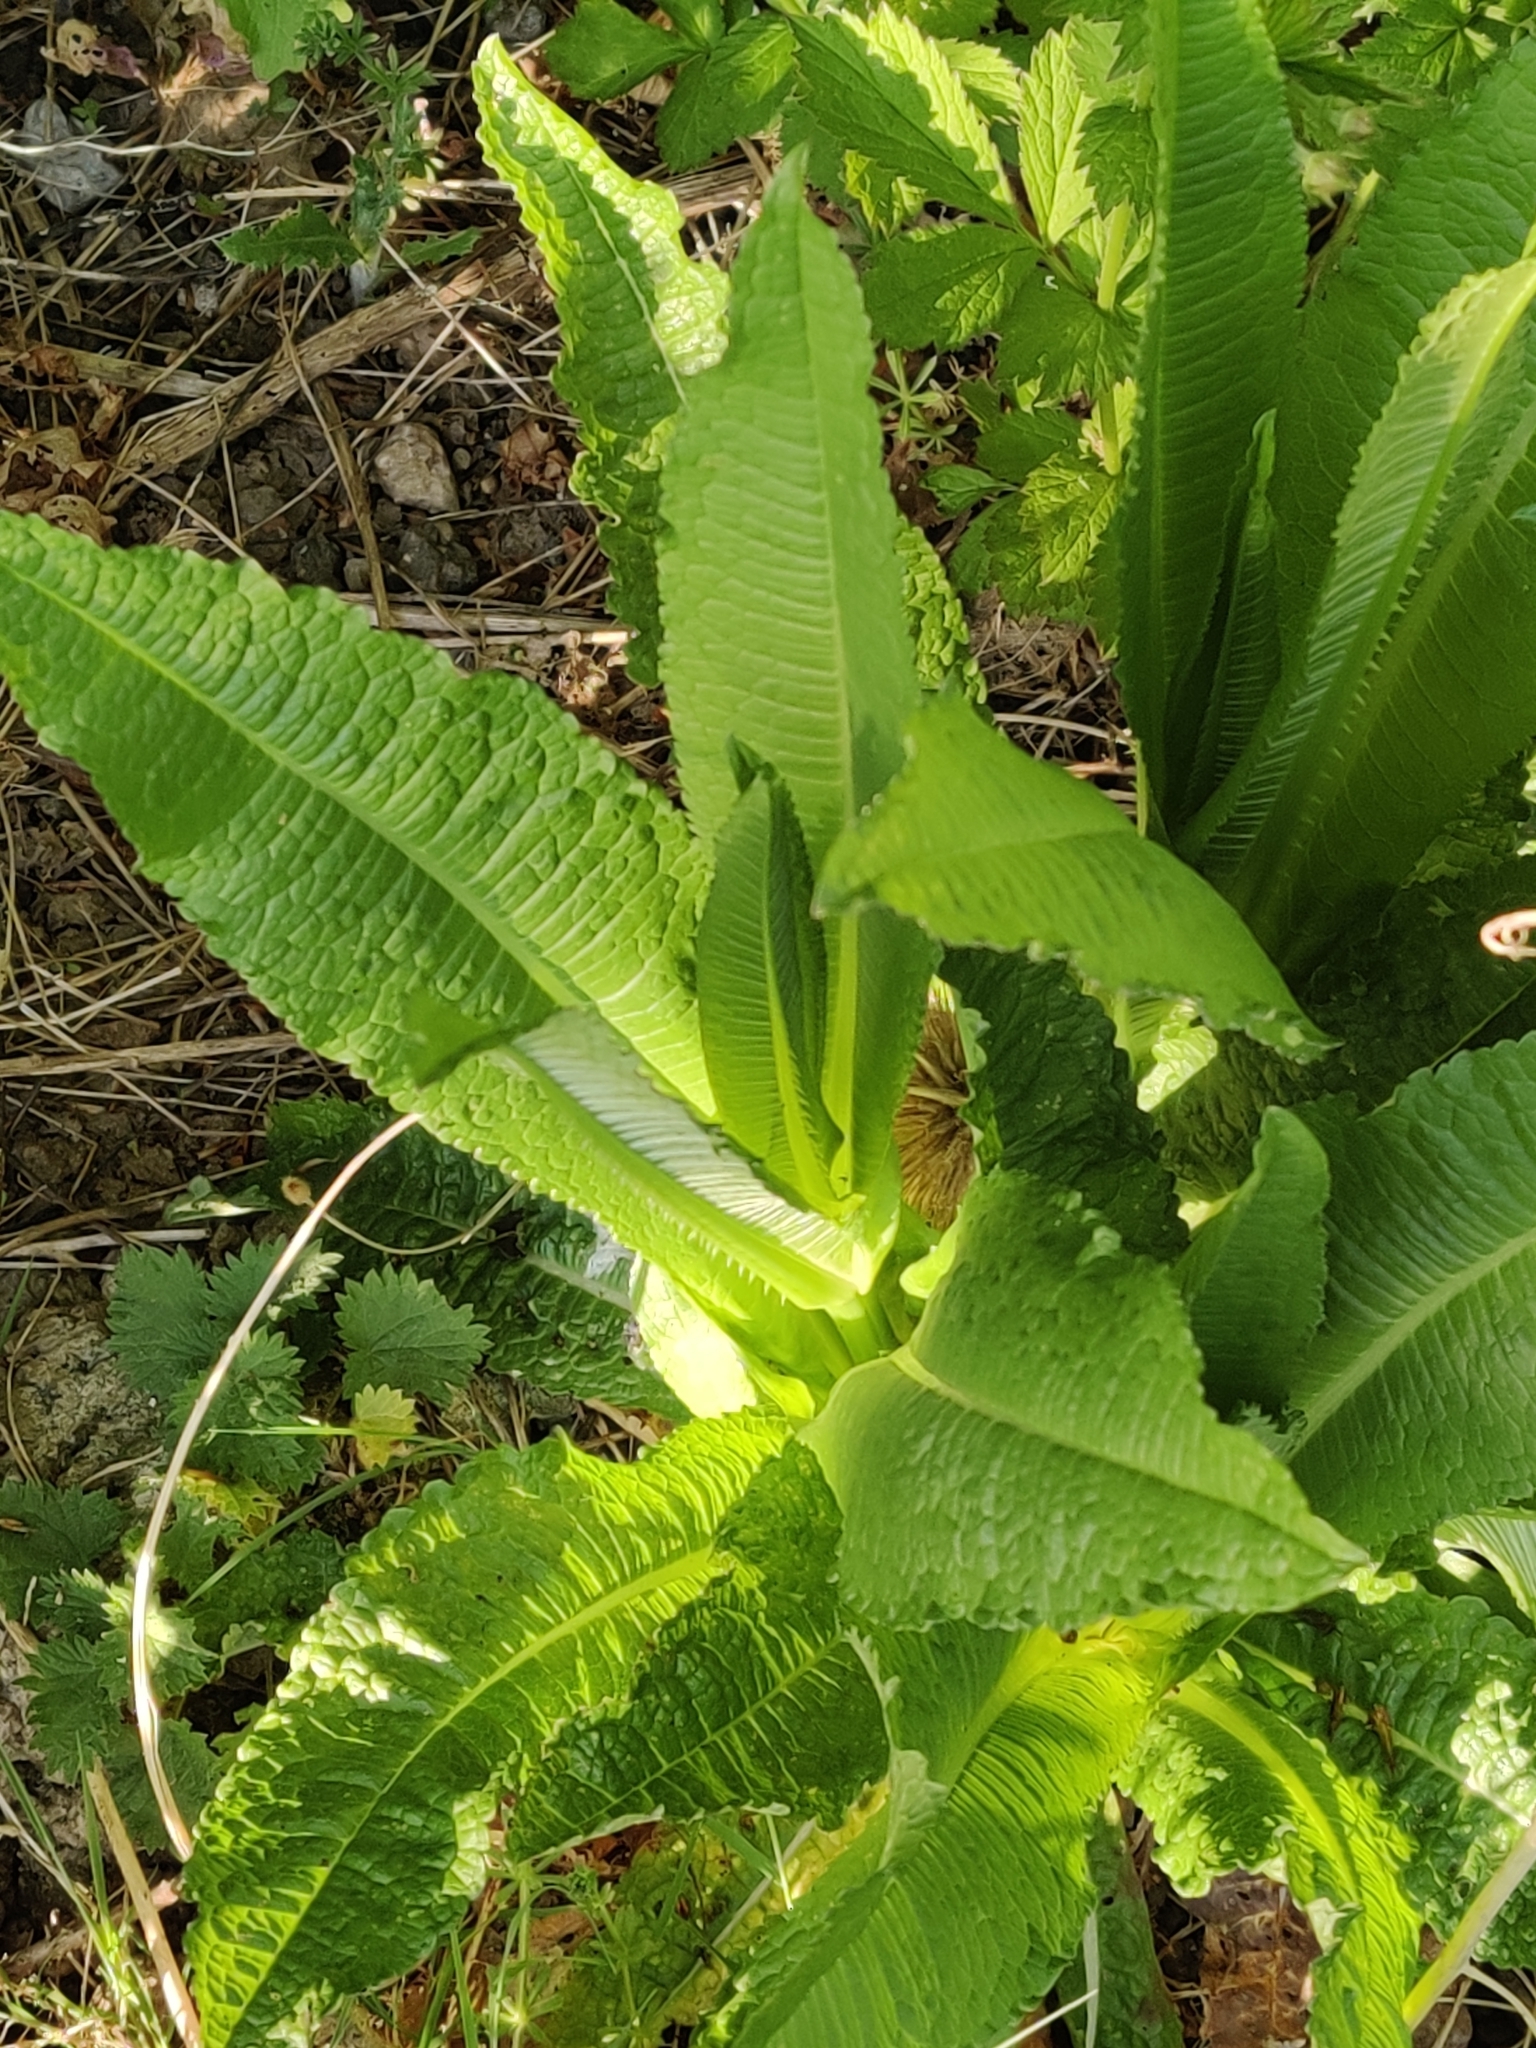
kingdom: Plantae
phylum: Tracheophyta
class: Magnoliopsida
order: Dipsacales
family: Caprifoliaceae
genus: Dipsacus
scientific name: Dipsacus fullonum
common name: Teasel
